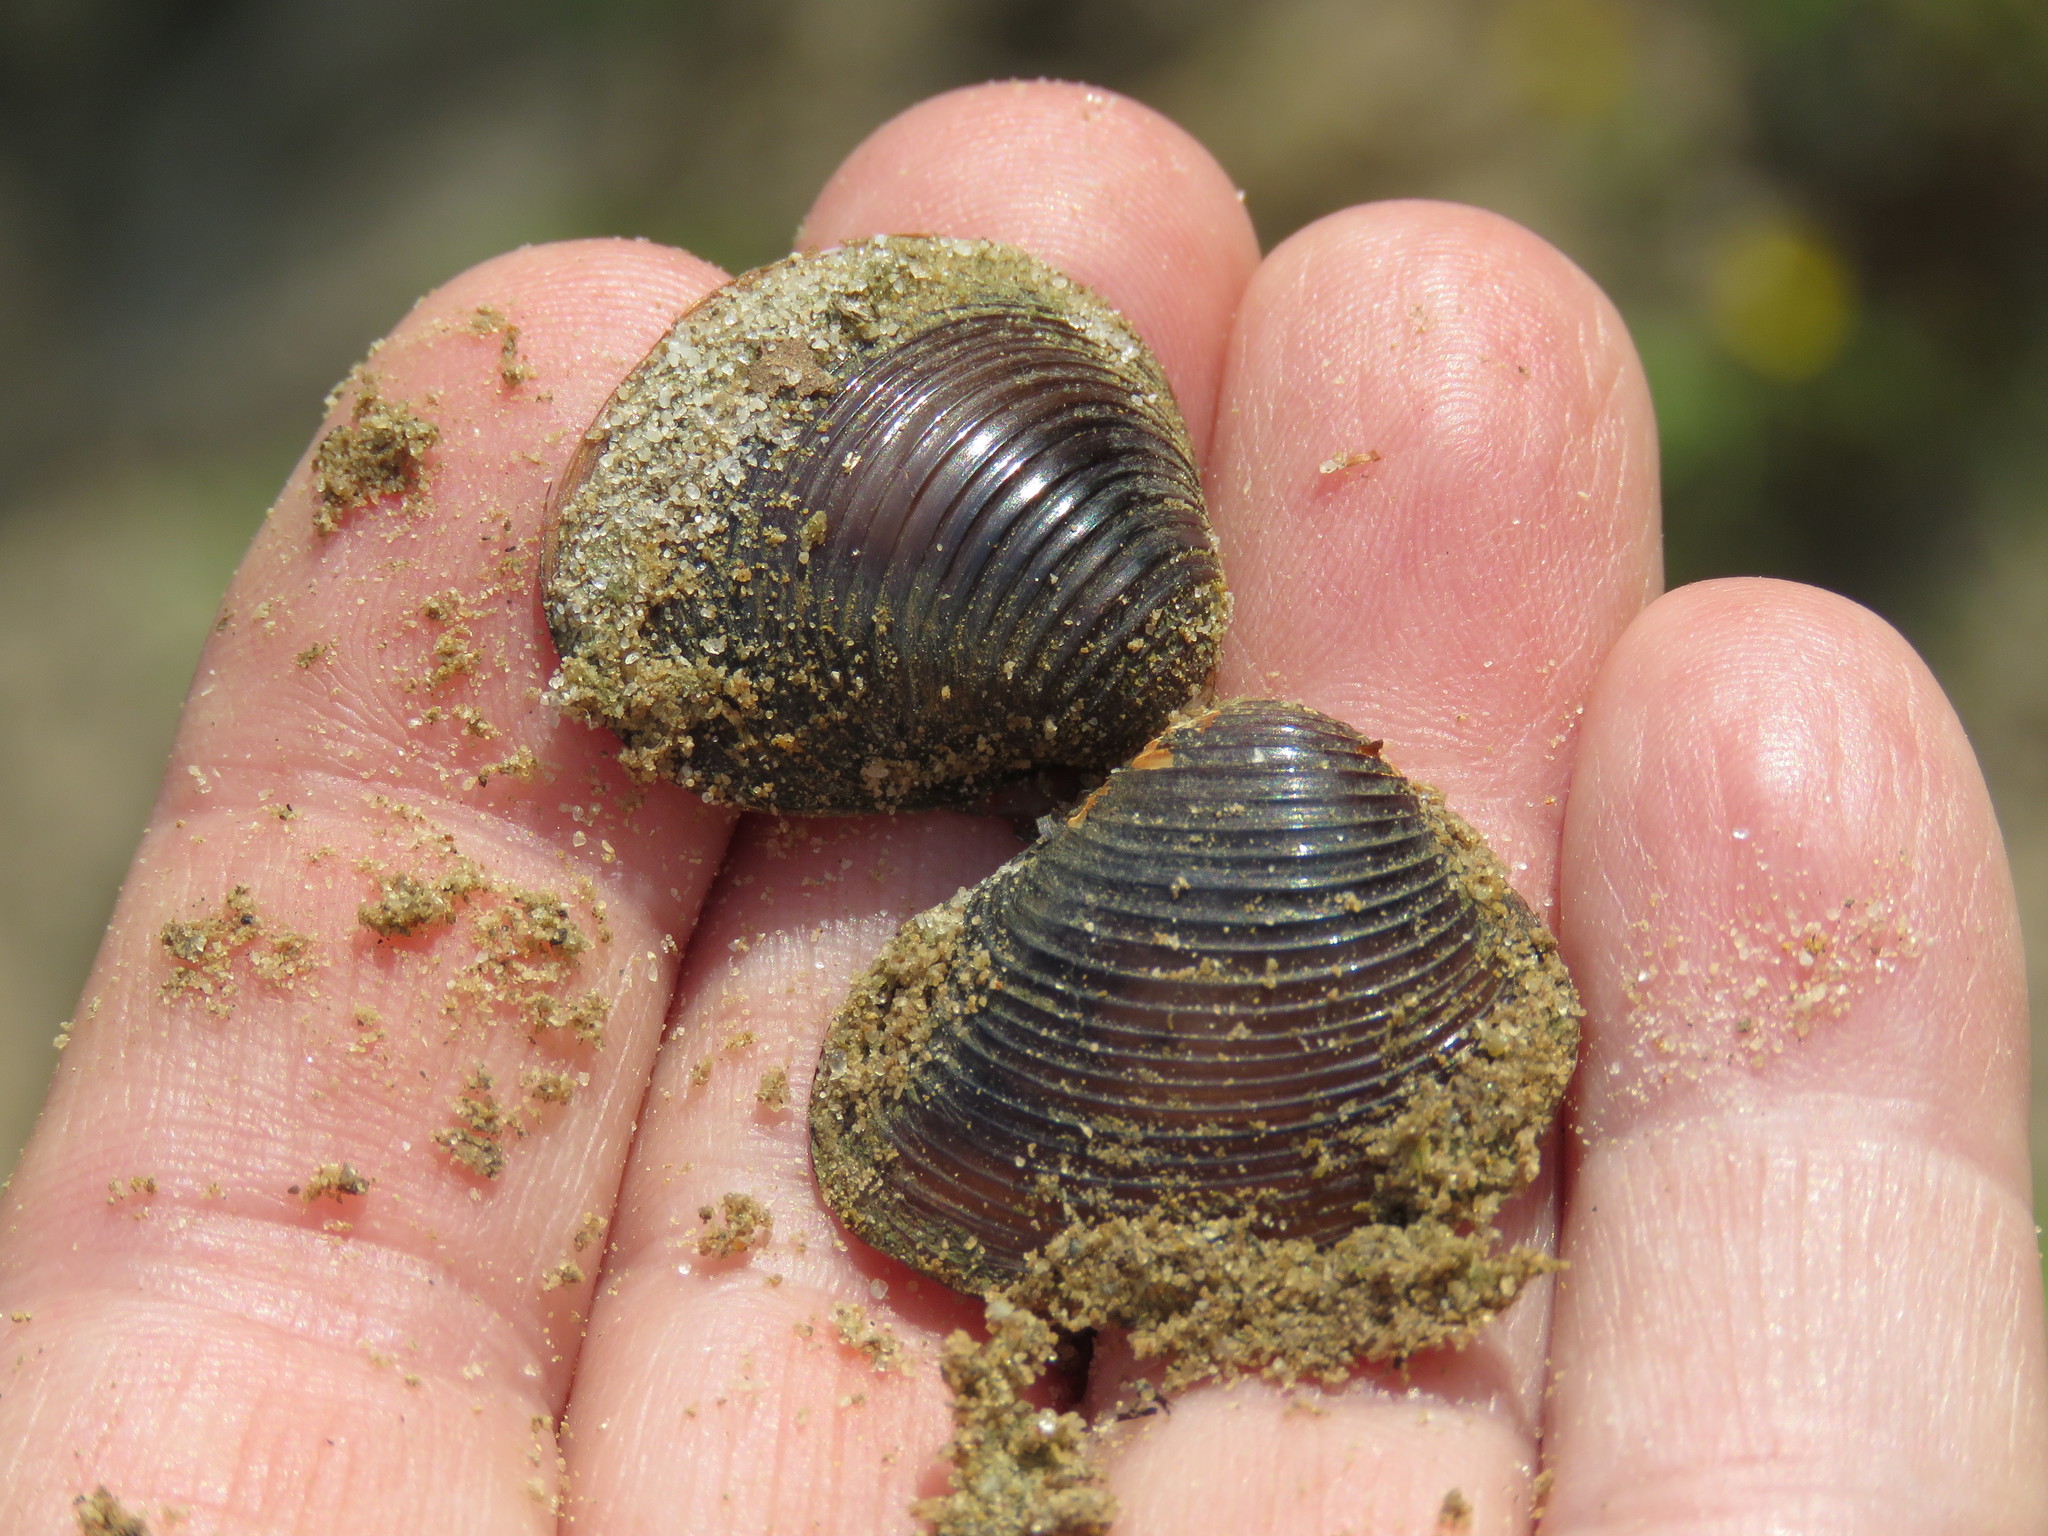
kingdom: Animalia
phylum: Mollusca
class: Bivalvia
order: Venerida
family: Cyrenidae
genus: Corbicula
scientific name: Corbicula fluminea
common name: Asian clam
